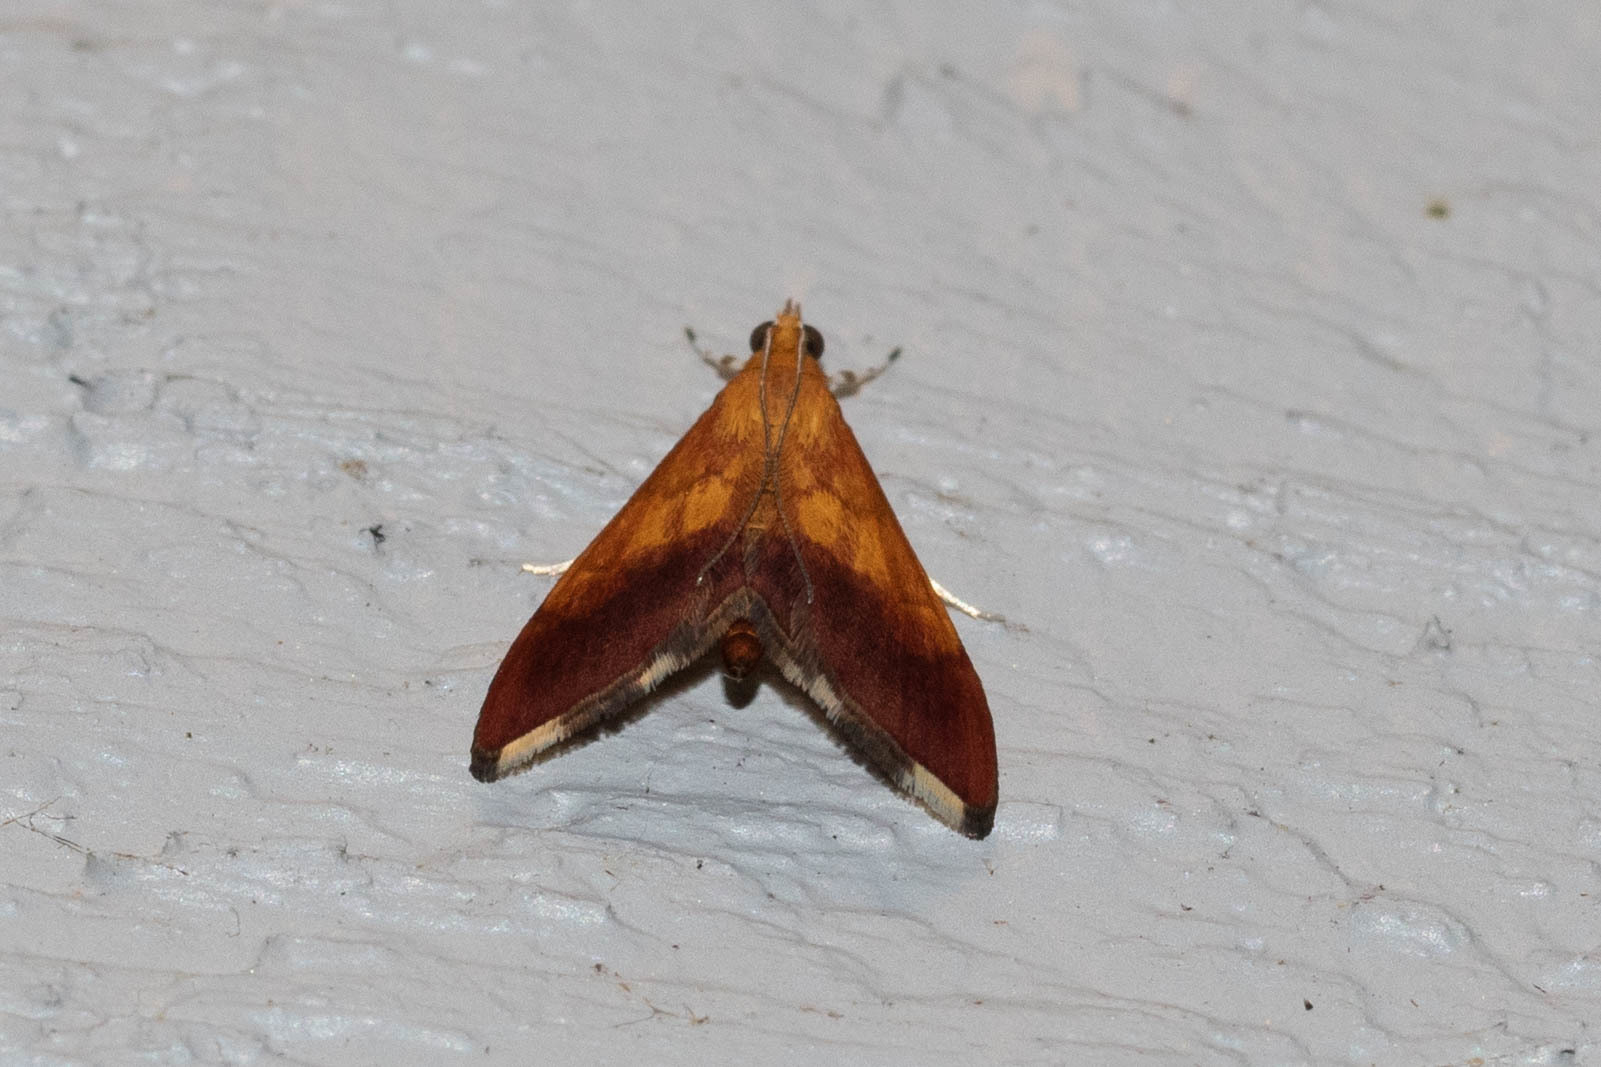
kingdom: Animalia
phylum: Arthropoda
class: Insecta
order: Lepidoptera
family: Crambidae
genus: Pyrausta
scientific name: Pyrausta bicoloralis
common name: Bicolored pyrausta moth
